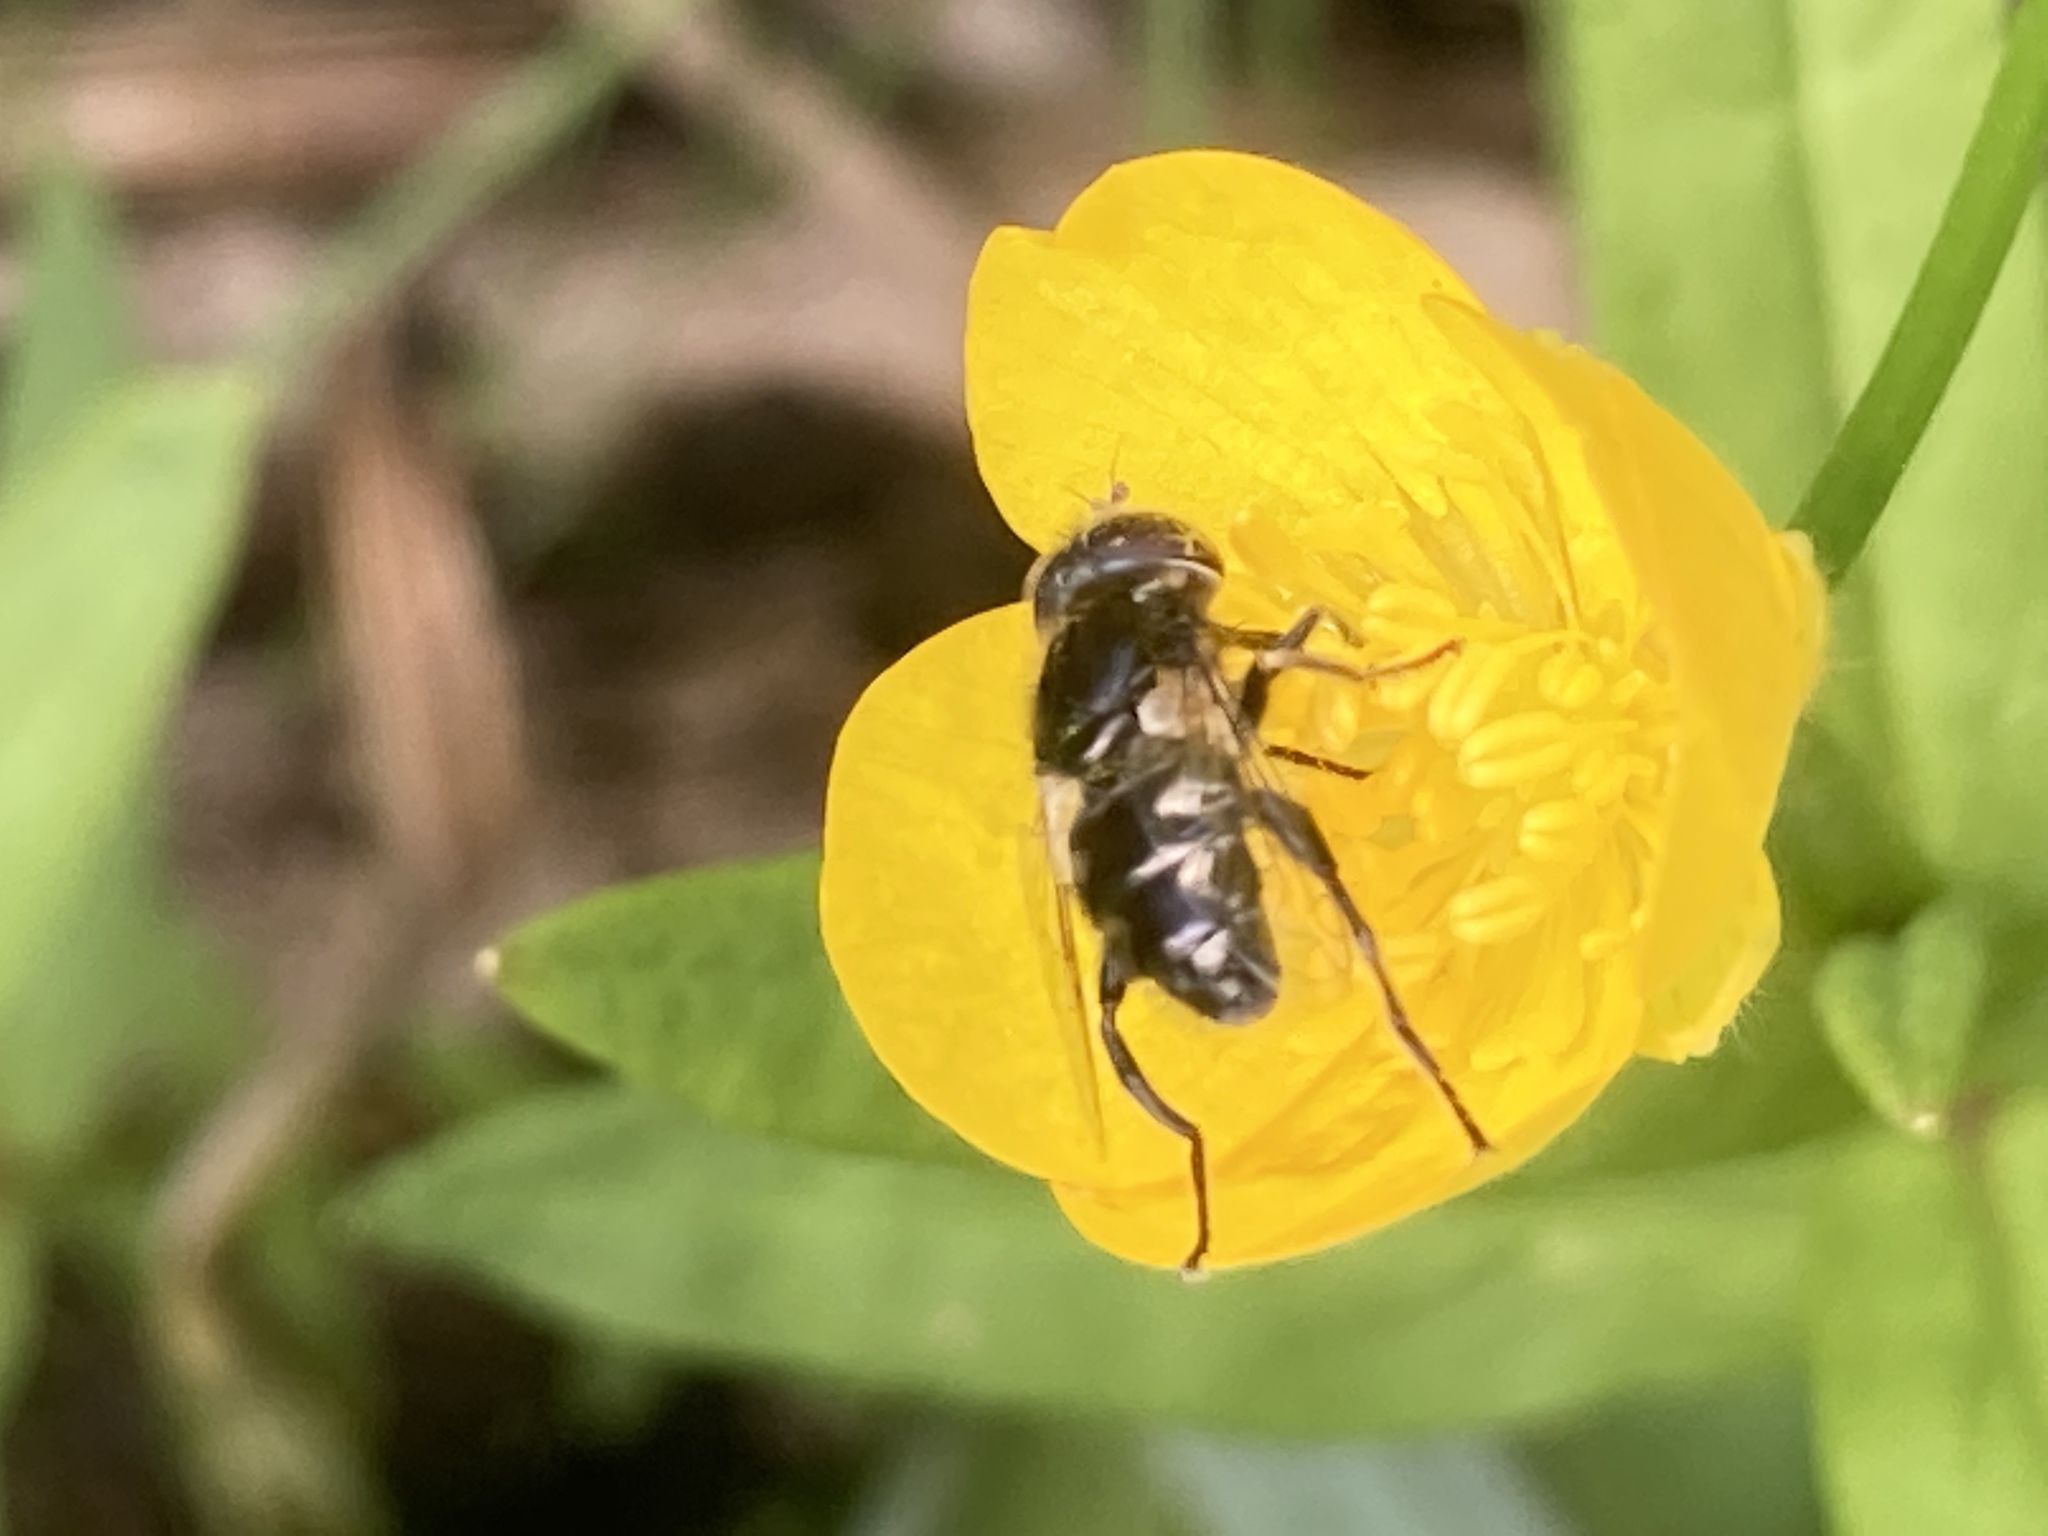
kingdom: Animalia
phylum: Arthropoda
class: Insecta
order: Diptera
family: Syrphidae
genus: Eristalinus
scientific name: Eristalinus sepulchralis
